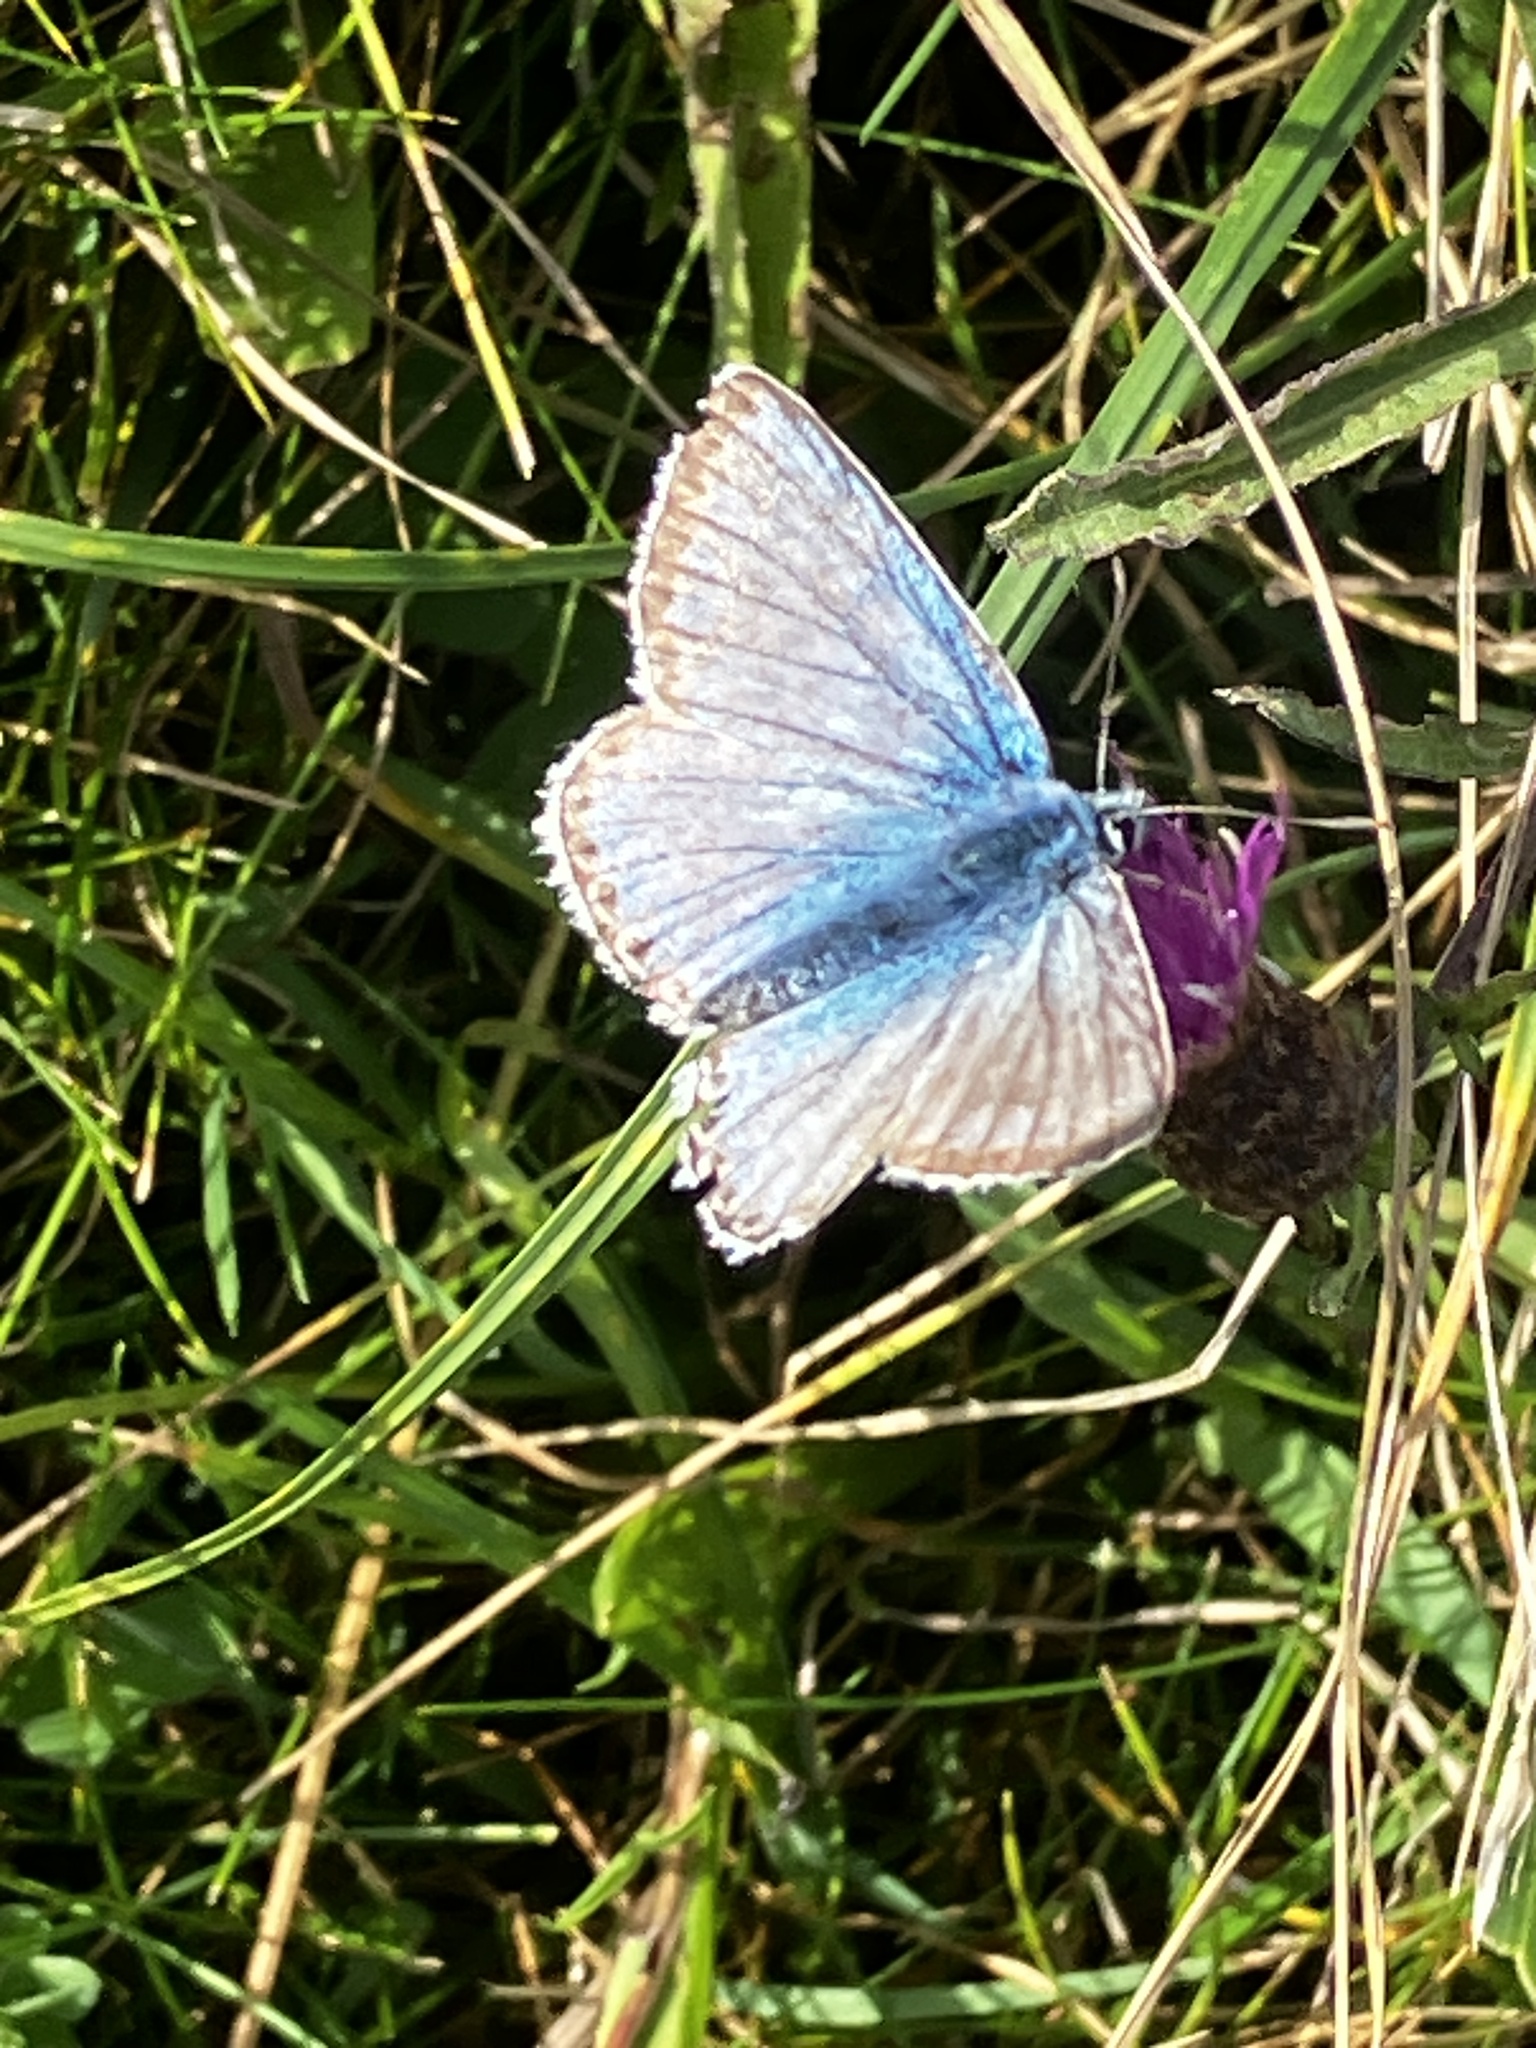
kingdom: Animalia
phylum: Arthropoda
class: Insecta
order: Lepidoptera
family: Lycaenidae
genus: Lysandra
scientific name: Lysandra coridon
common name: Chalkhill blue
